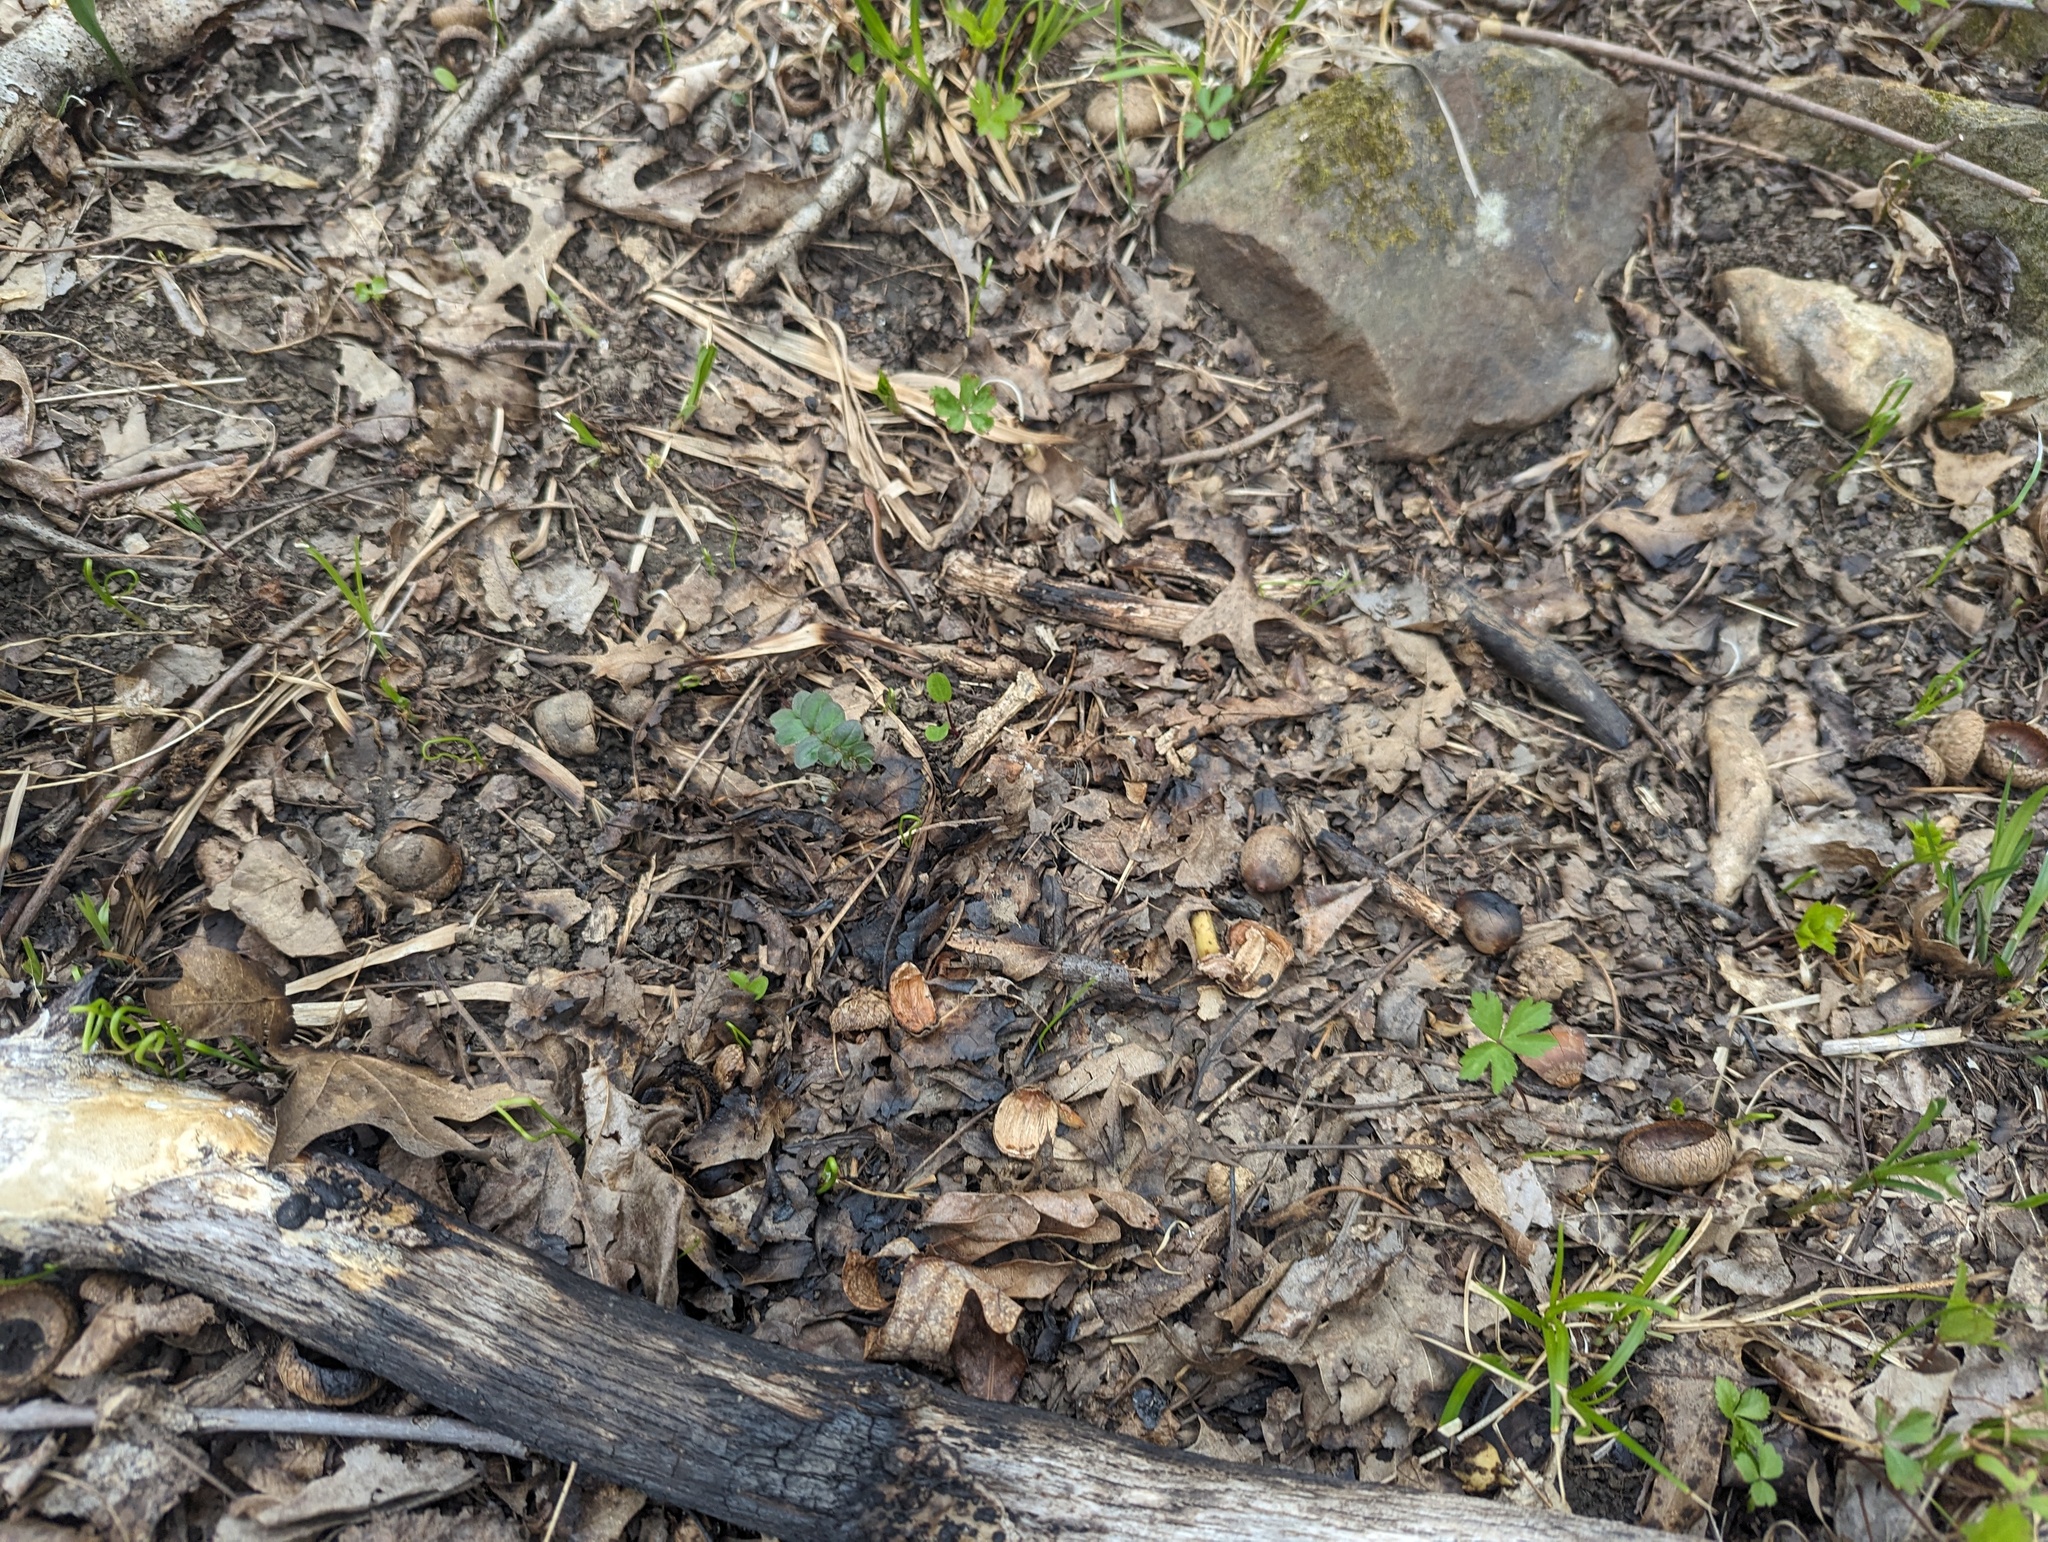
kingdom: Animalia
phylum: Chordata
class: Squamata
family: Scincidae
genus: Scincella
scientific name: Scincella lateralis
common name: Ground skink
